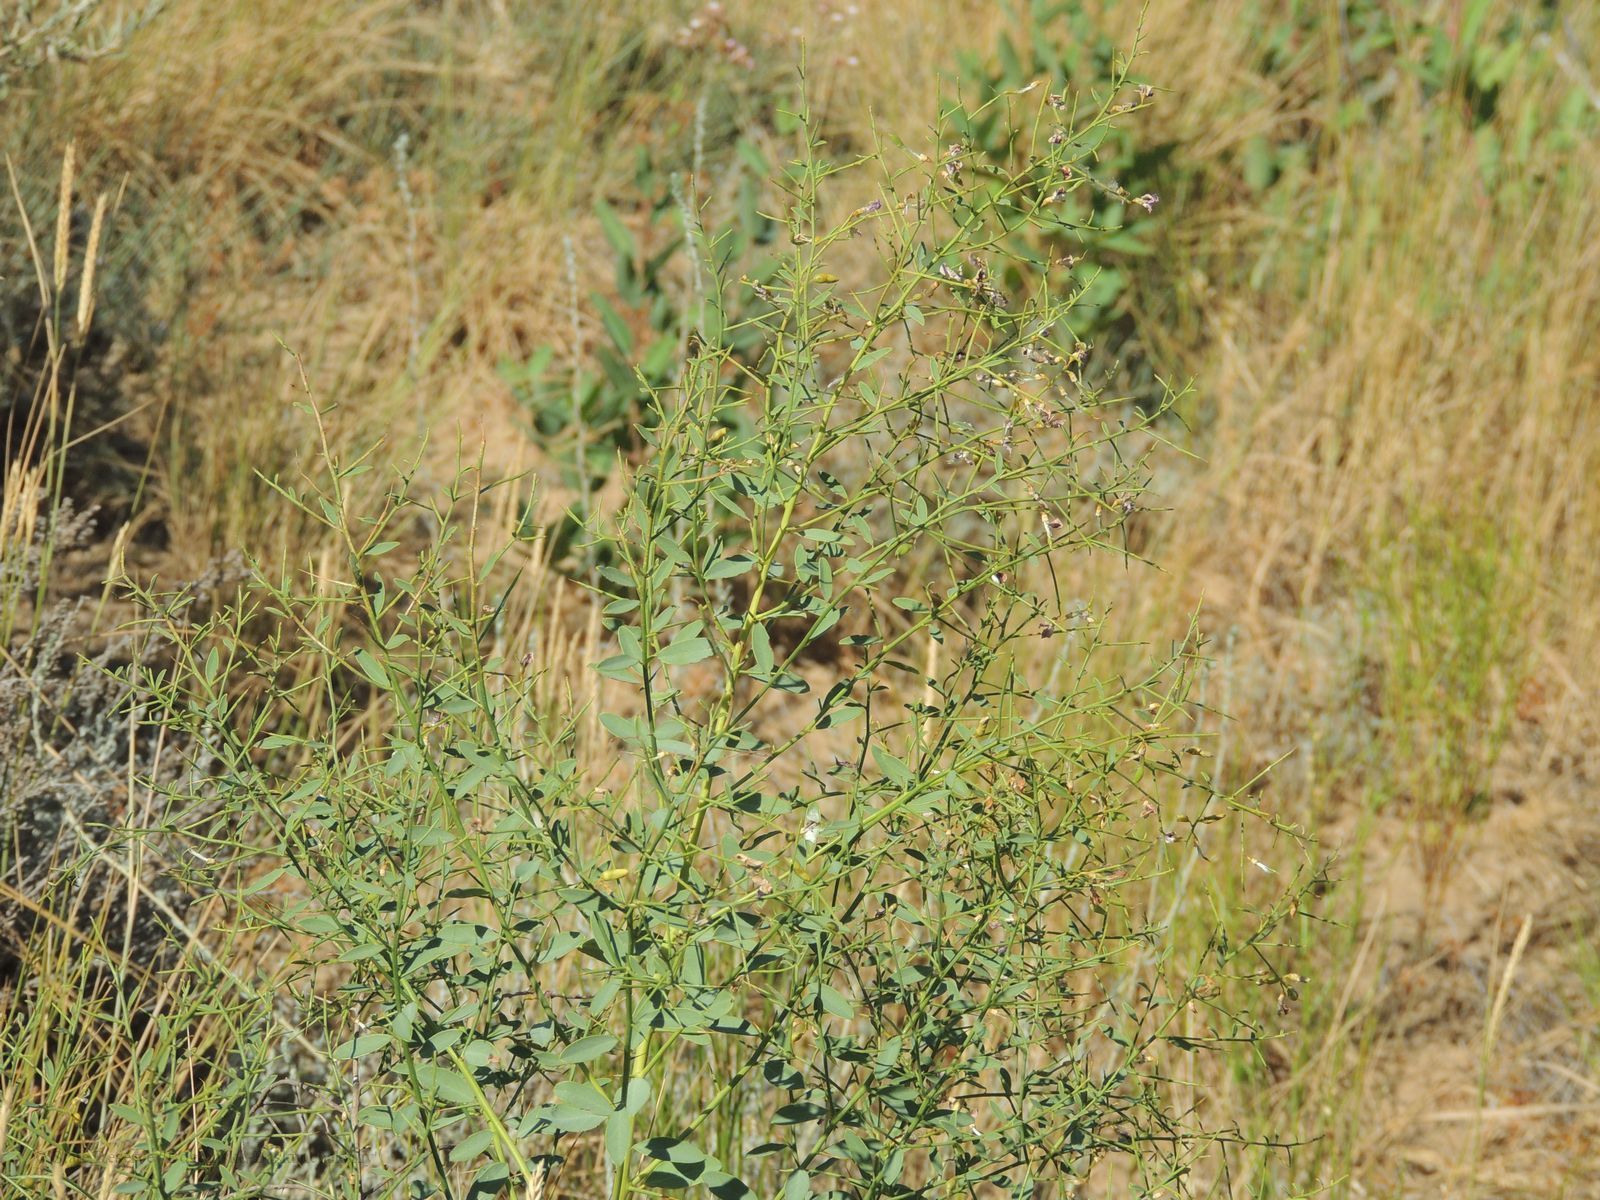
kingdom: Plantae
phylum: Tracheophyta
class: Magnoliopsida
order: Fabales
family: Fabaceae
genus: Alhagi
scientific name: Alhagi pseudalhagi
